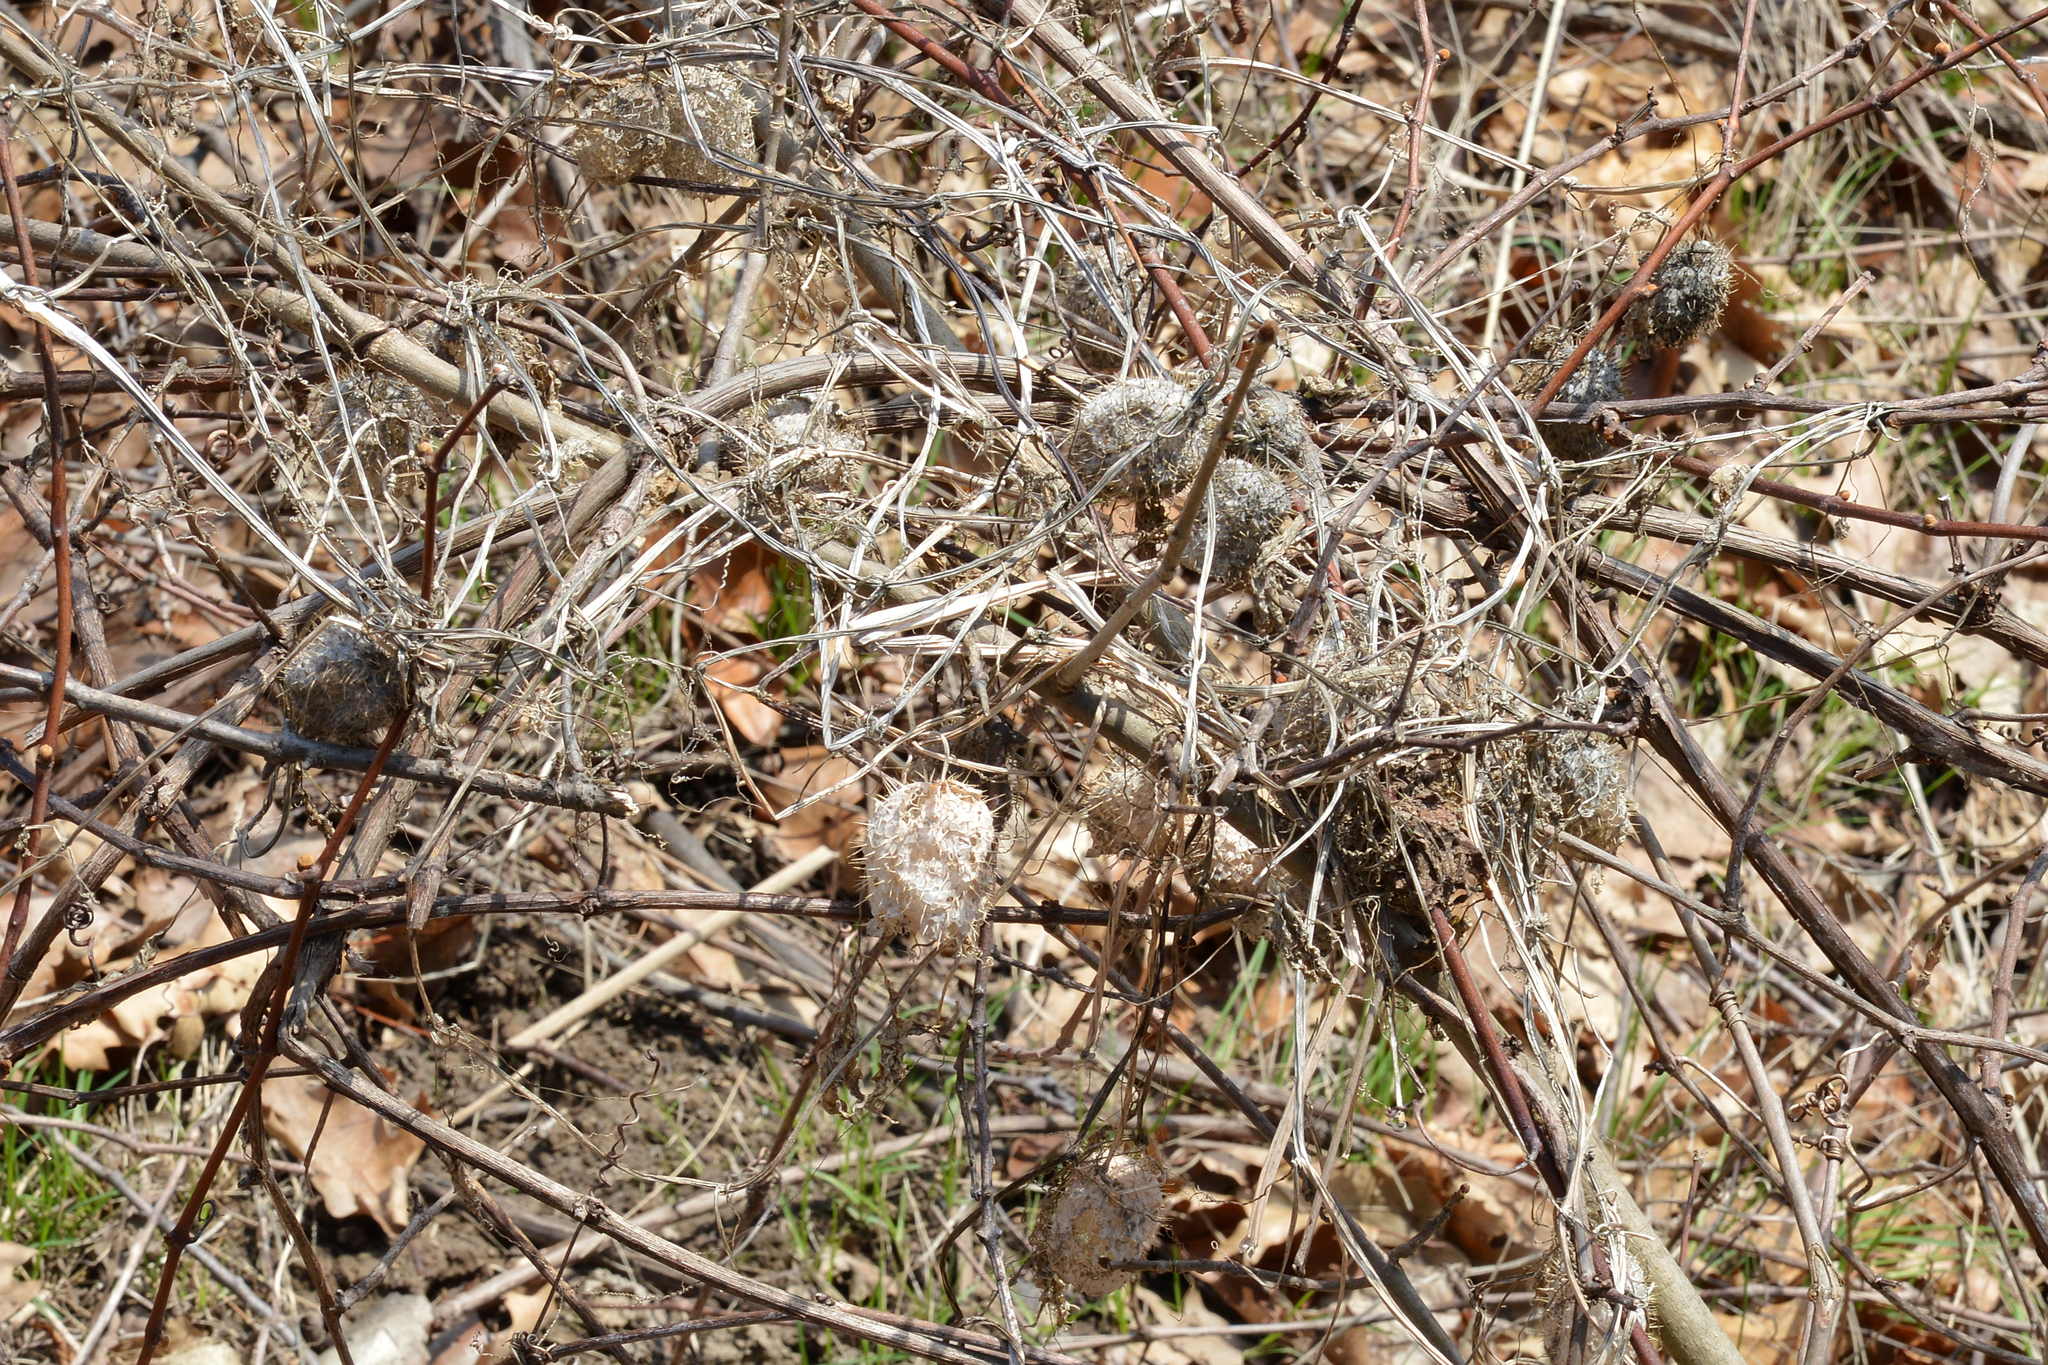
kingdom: Plantae
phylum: Tracheophyta
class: Magnoliopsida
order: Cucurbitales
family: Cucurbitaceae
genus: Echinocystis
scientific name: Echinocystis lobata
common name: Wild cucumber
